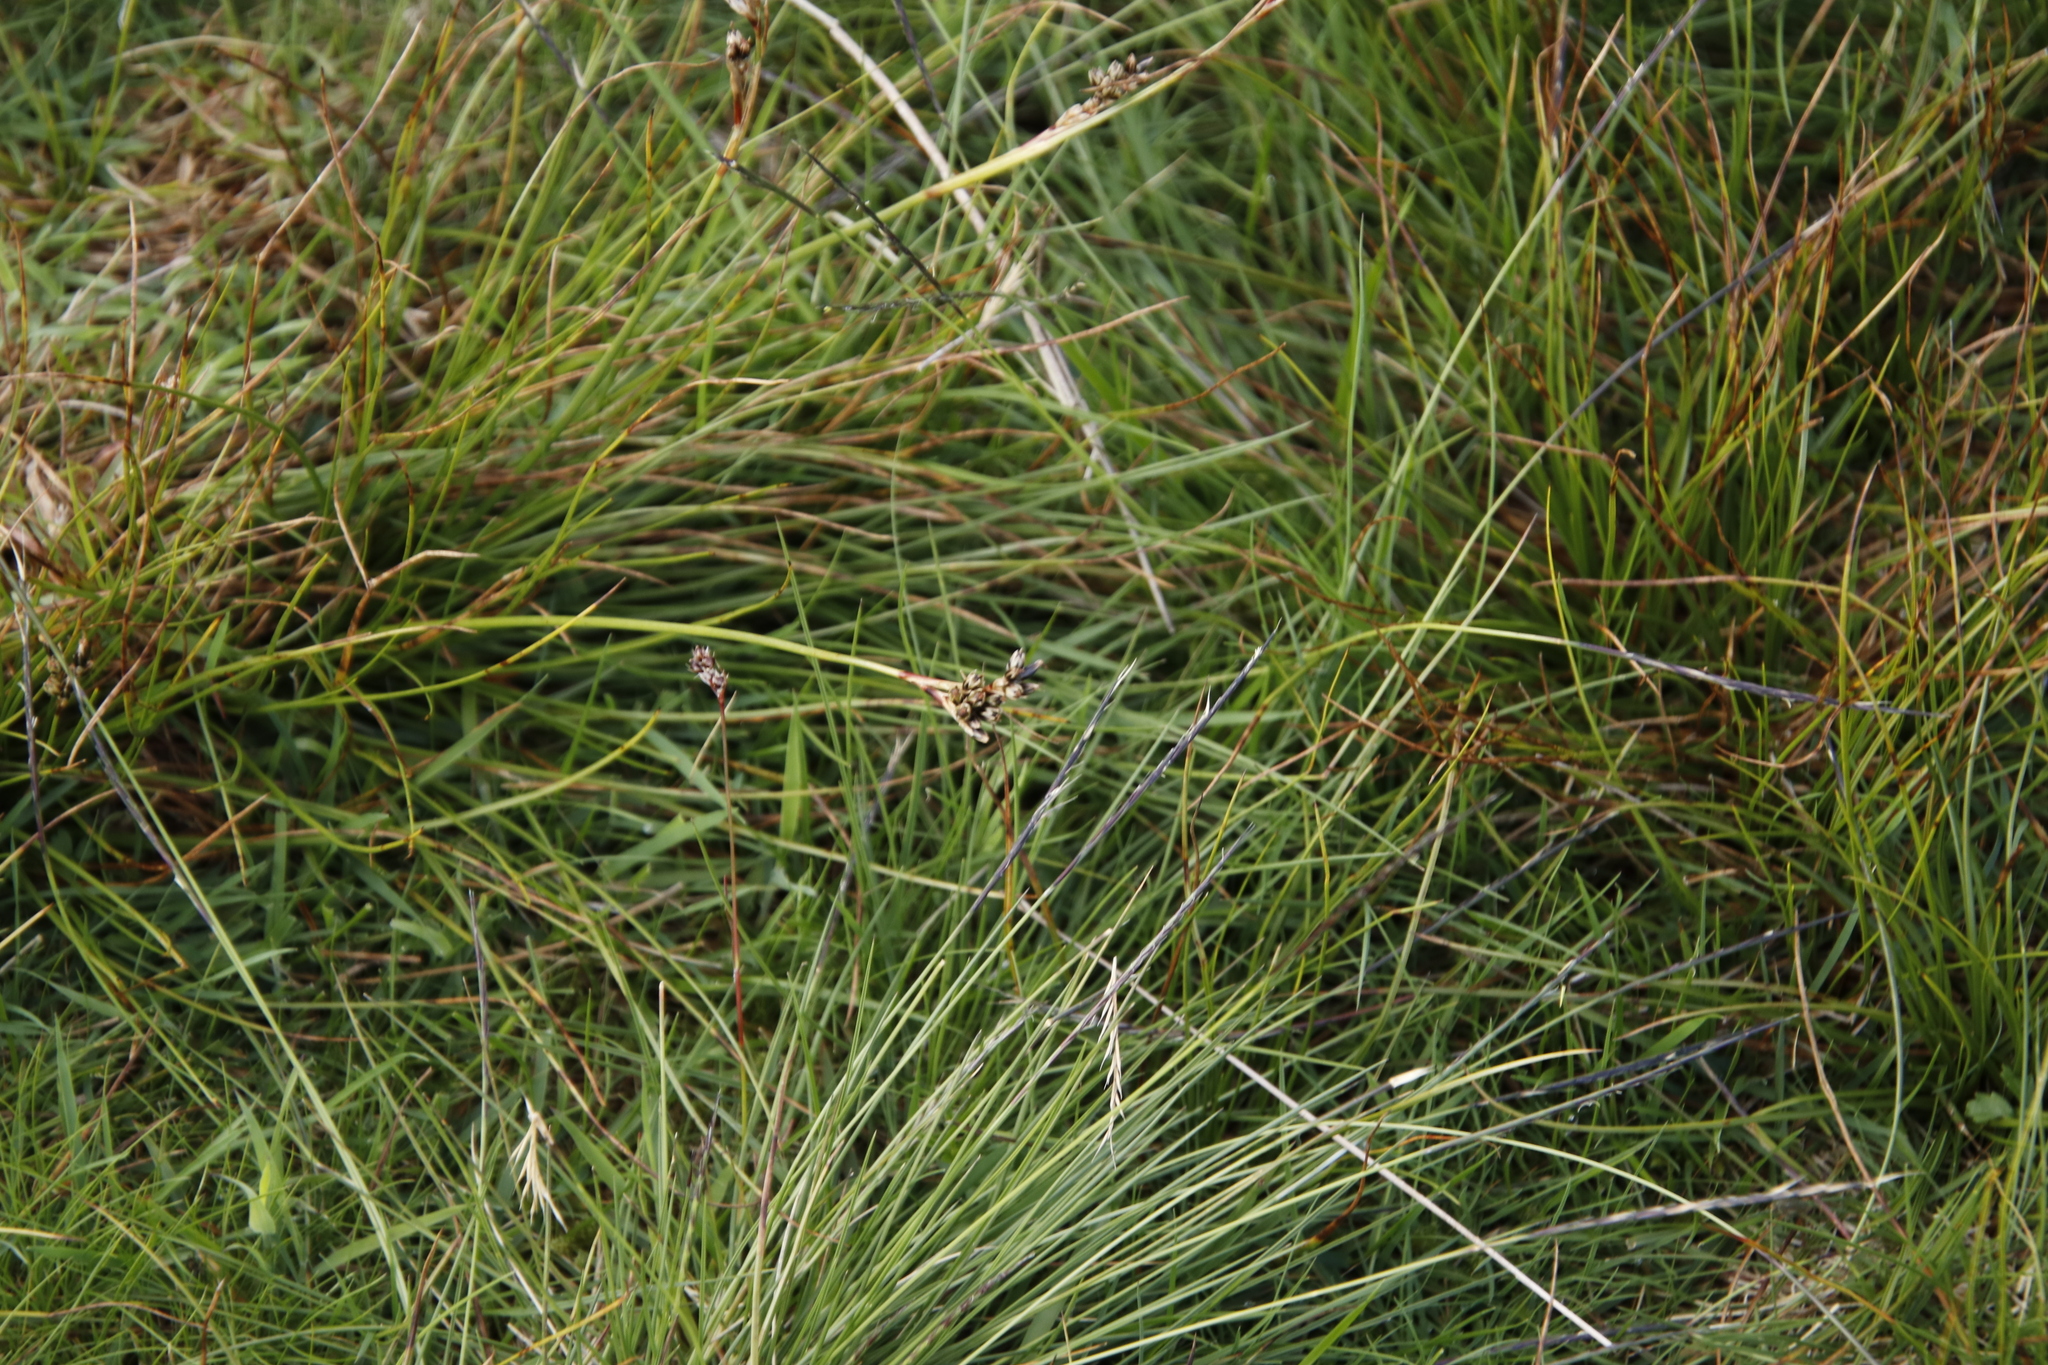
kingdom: Plantae
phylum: Tracheophyta
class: Liliopsida
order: Poales
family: Juncaceae
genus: Luzula
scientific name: Luzula campestris
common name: Field wood-rush
